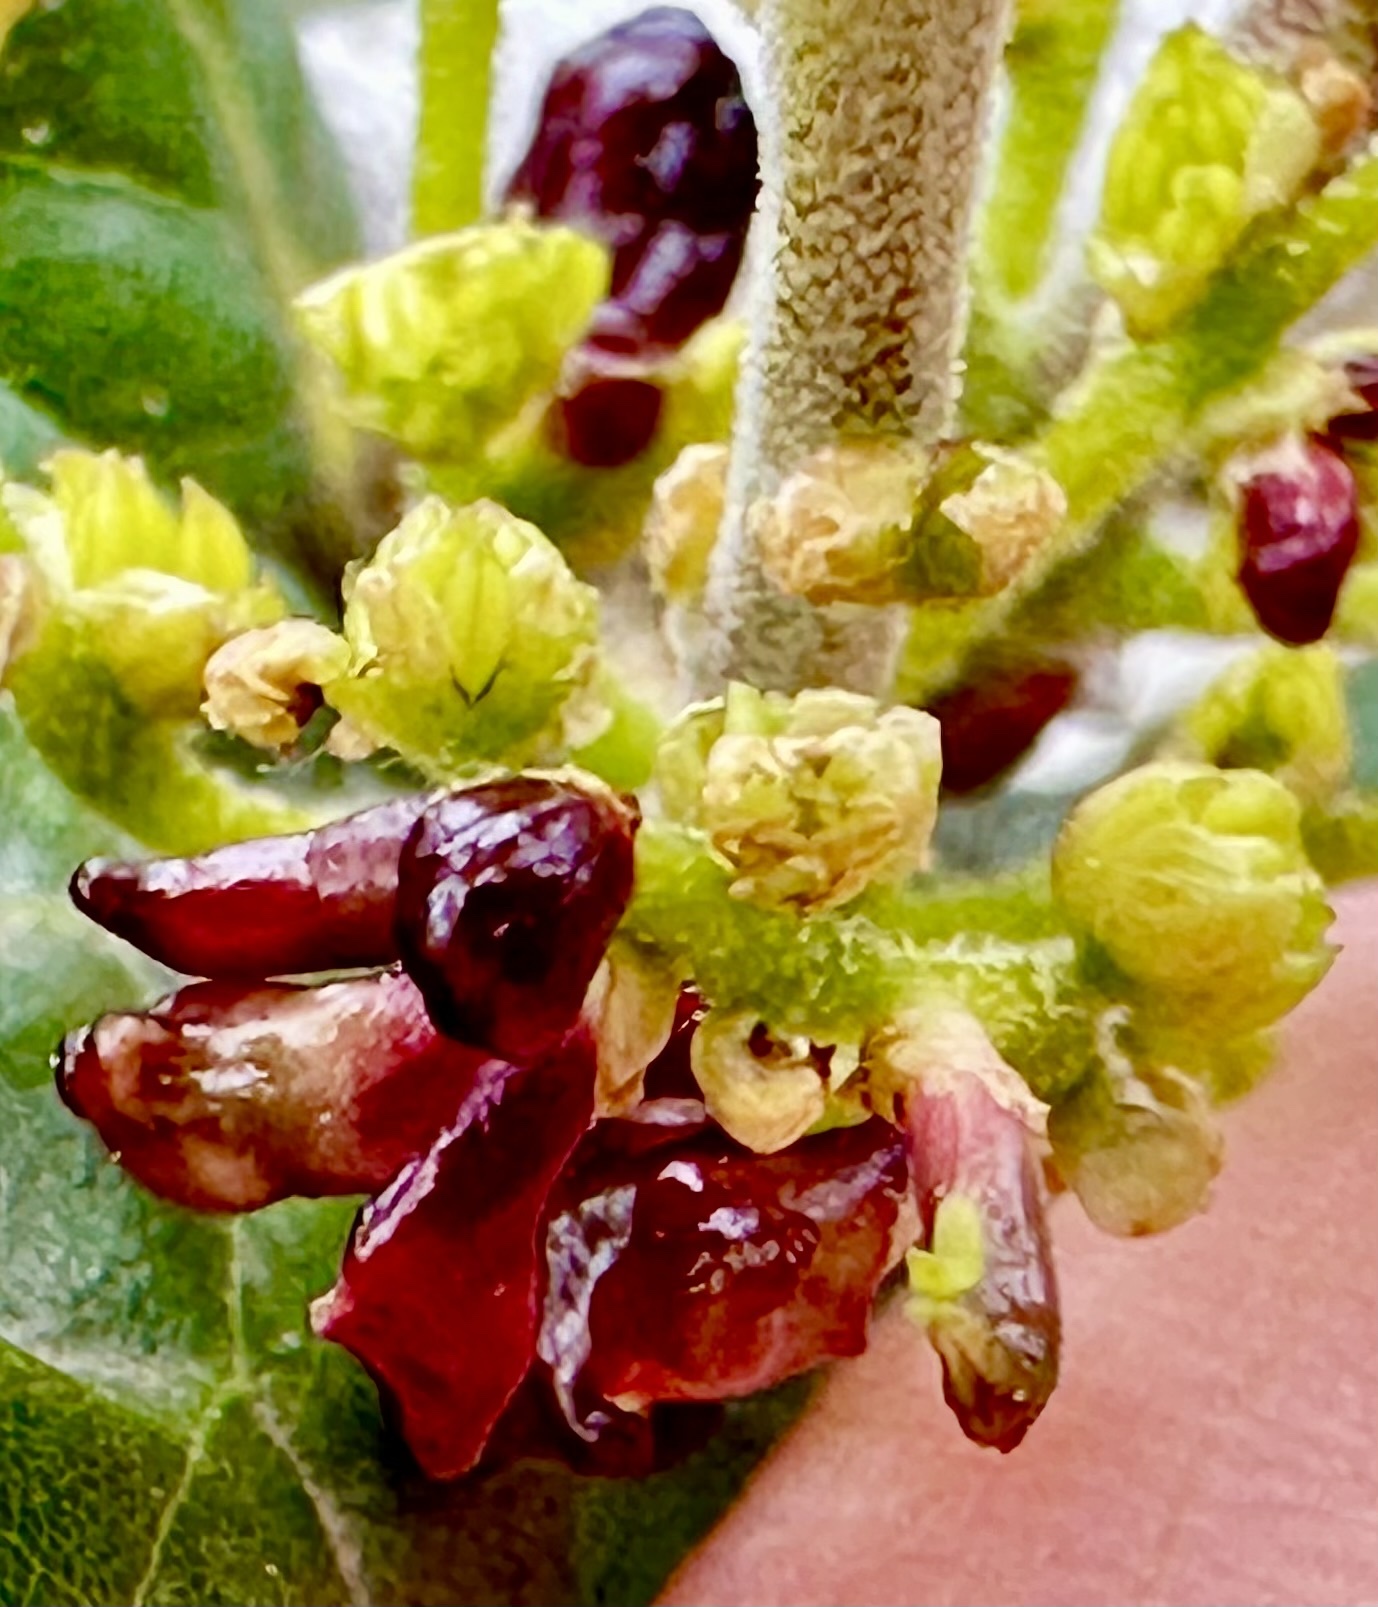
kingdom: Animalia
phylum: Arthropoda
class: Insecta
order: Hymenoptera
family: Cynipidae
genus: Dryocosmus
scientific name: Dryocosmus
